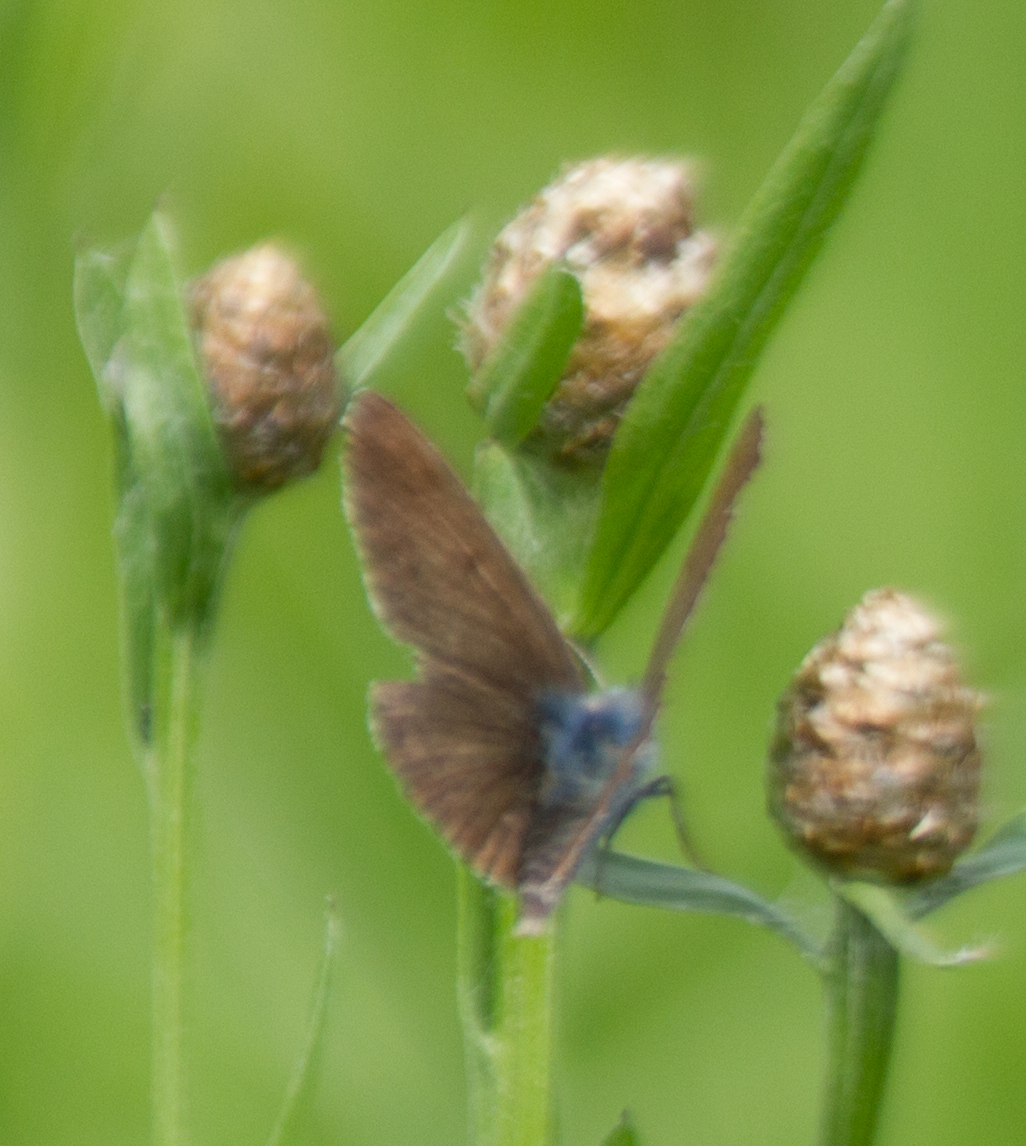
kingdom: Animalia
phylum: Arthropoda
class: Insecta
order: Lepidoptera
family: Lycaenidae
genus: Eumedonia
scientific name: Eumedonia eumedon
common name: Geranium argus
